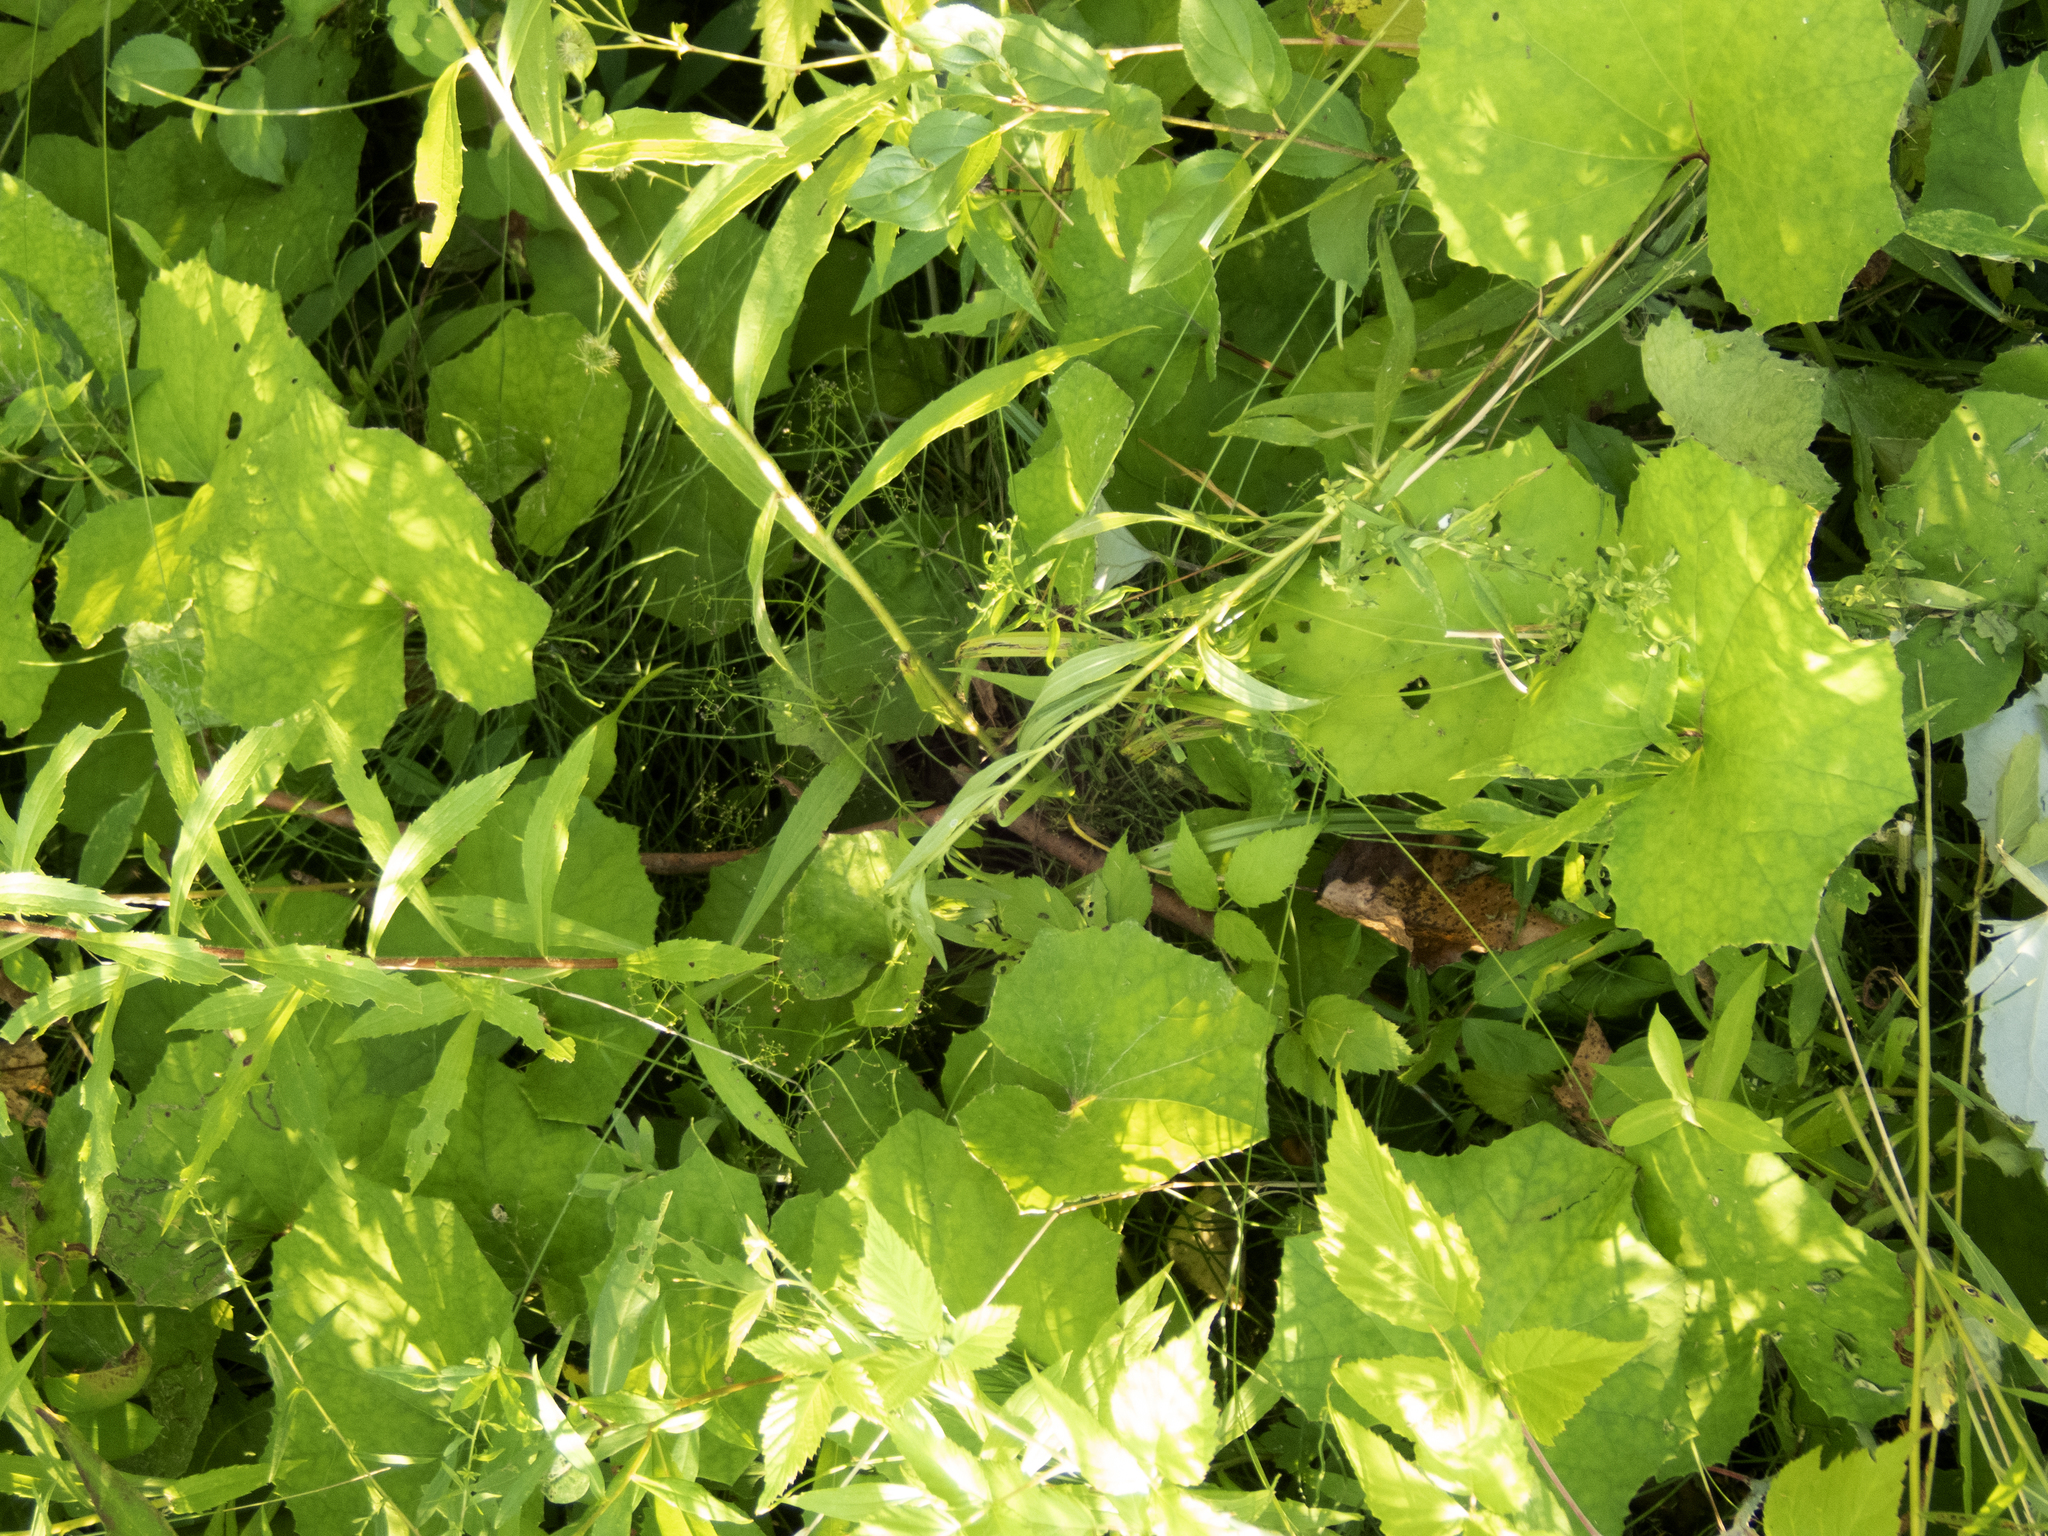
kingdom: Plantae
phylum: Tracheophyta
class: Magnoliopsida
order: Asterales
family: Asteraceae
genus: Tussilago
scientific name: Tussilago farfara
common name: Coltsfoot
